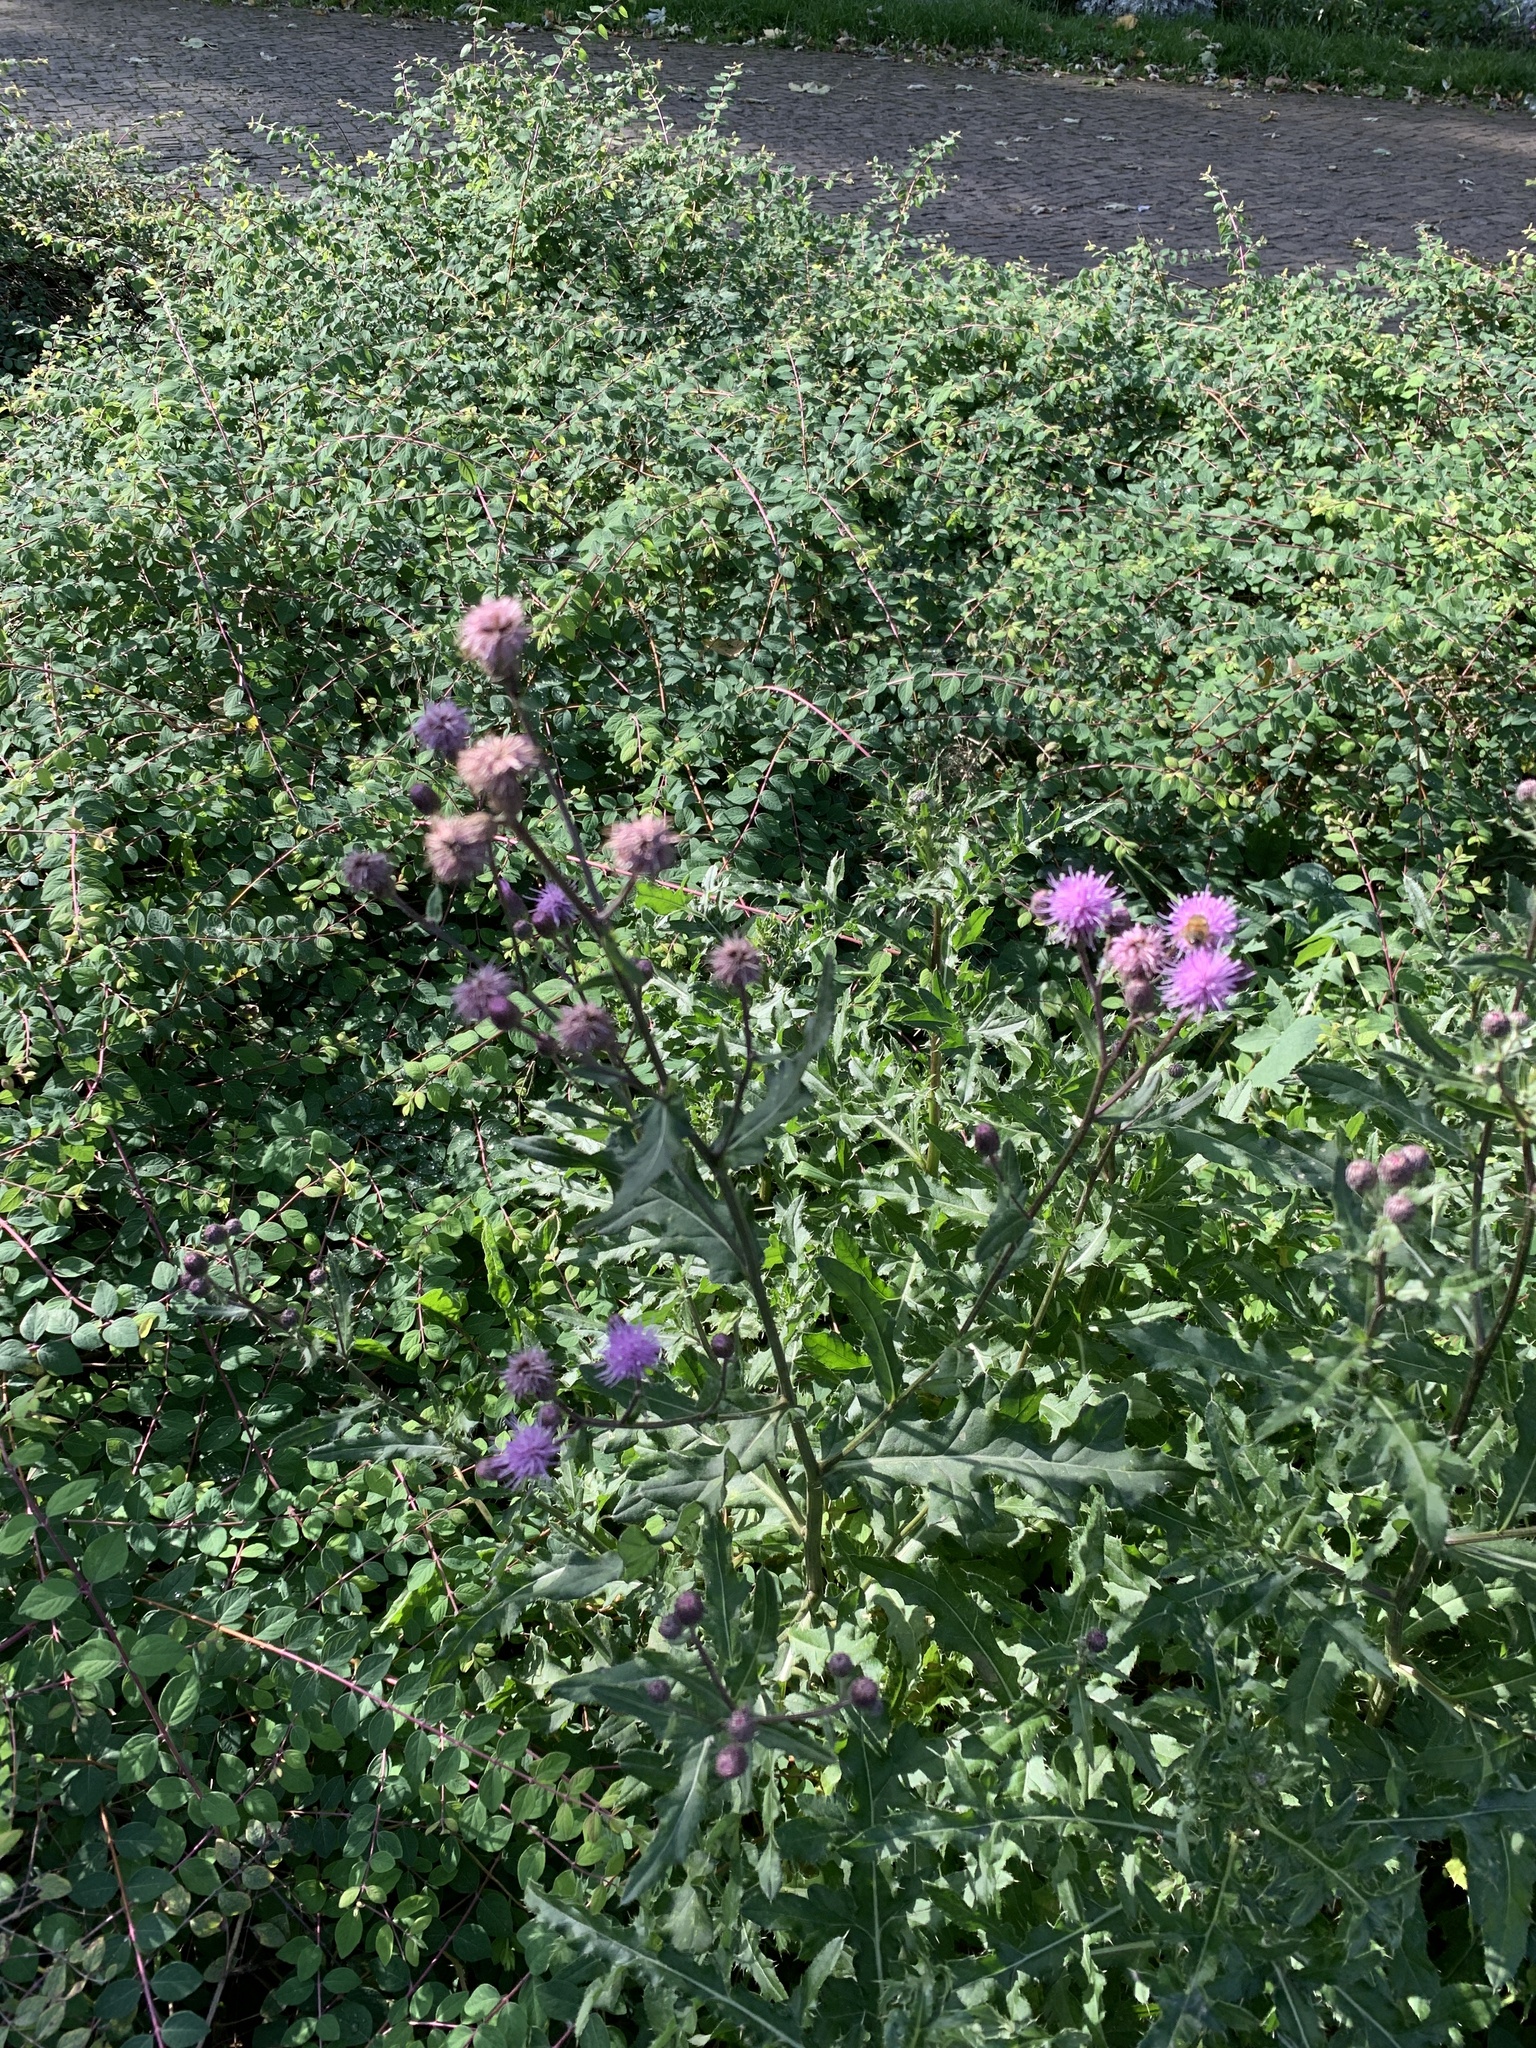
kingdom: Plantae
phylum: Tracheophyta
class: Magnoliopsida
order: Asterales
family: Asteraceae
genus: Cirsium
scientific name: Cirsium arvense
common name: Creeping thistle
